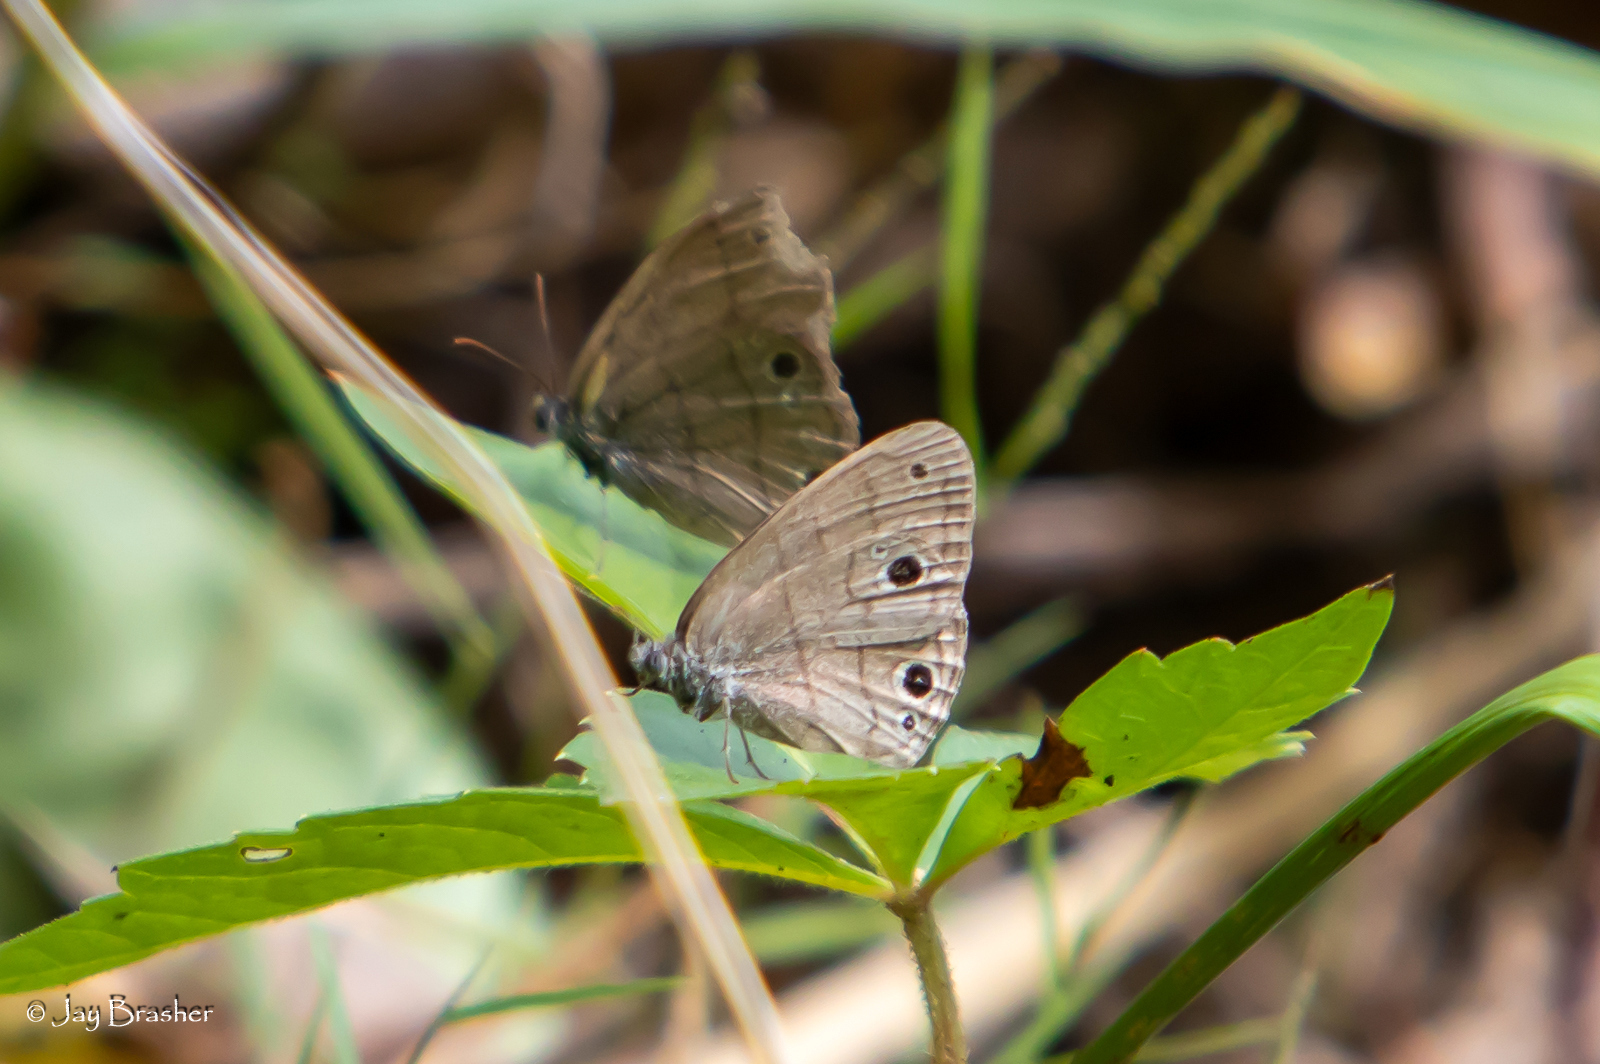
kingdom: Animalia
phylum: Arthropoda
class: Insecta
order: Lepidoptera
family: Nymphalidae
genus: Hermeuptychia
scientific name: Hermeuptychia hermes
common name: Hermes satyr
